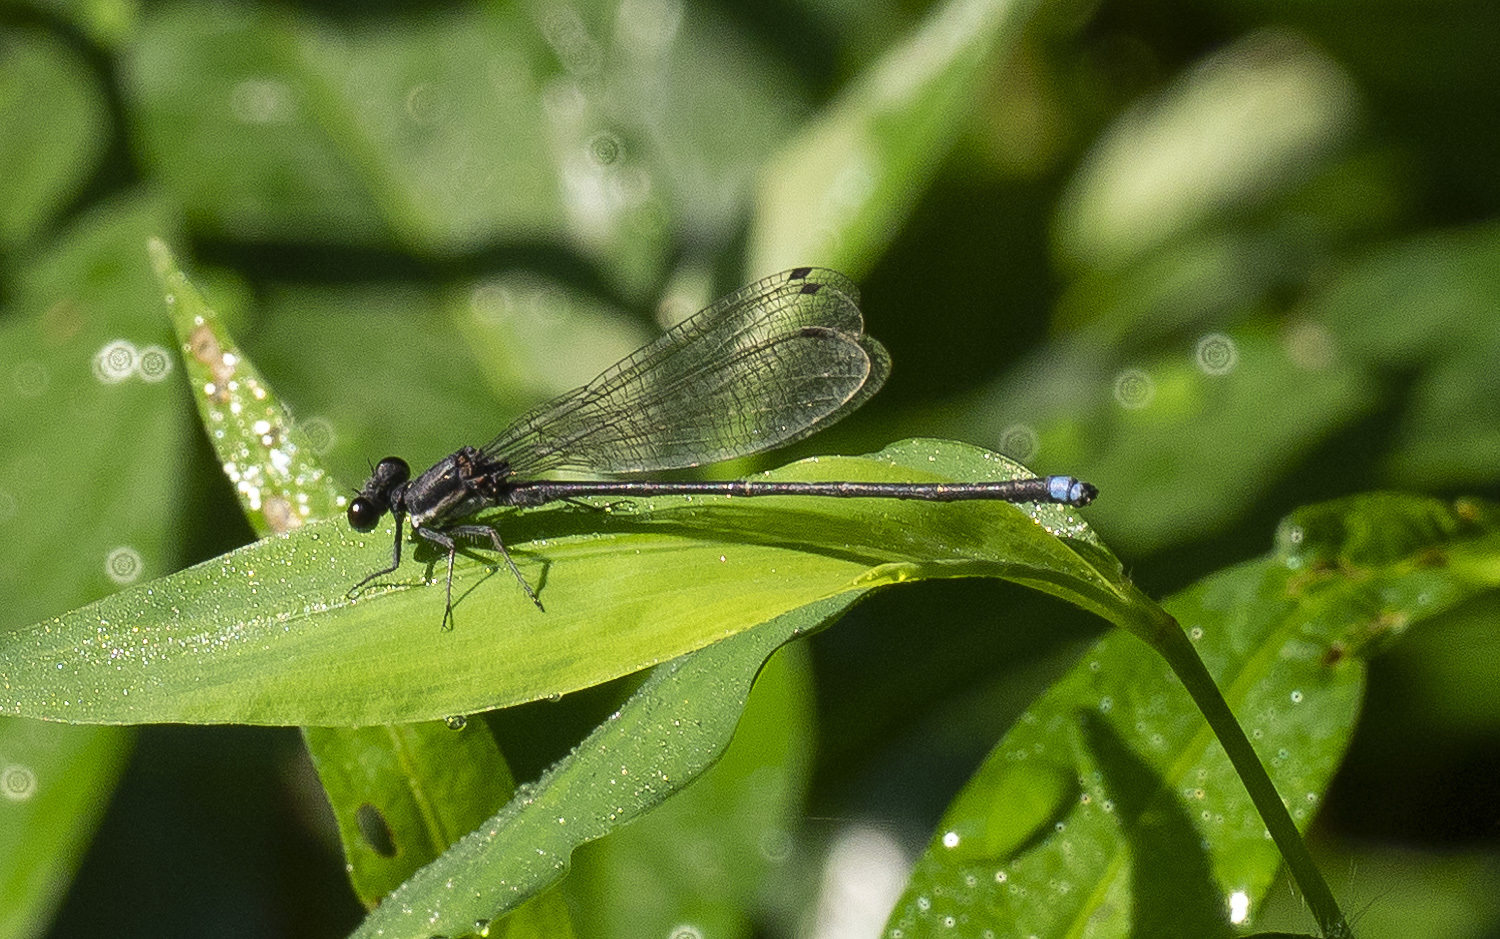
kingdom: Animalia
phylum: Arthropoda
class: Insecta
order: Odonata
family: Coenagrionidae
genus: Argia
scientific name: Argia tibialis
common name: Blue-tipped dancer
